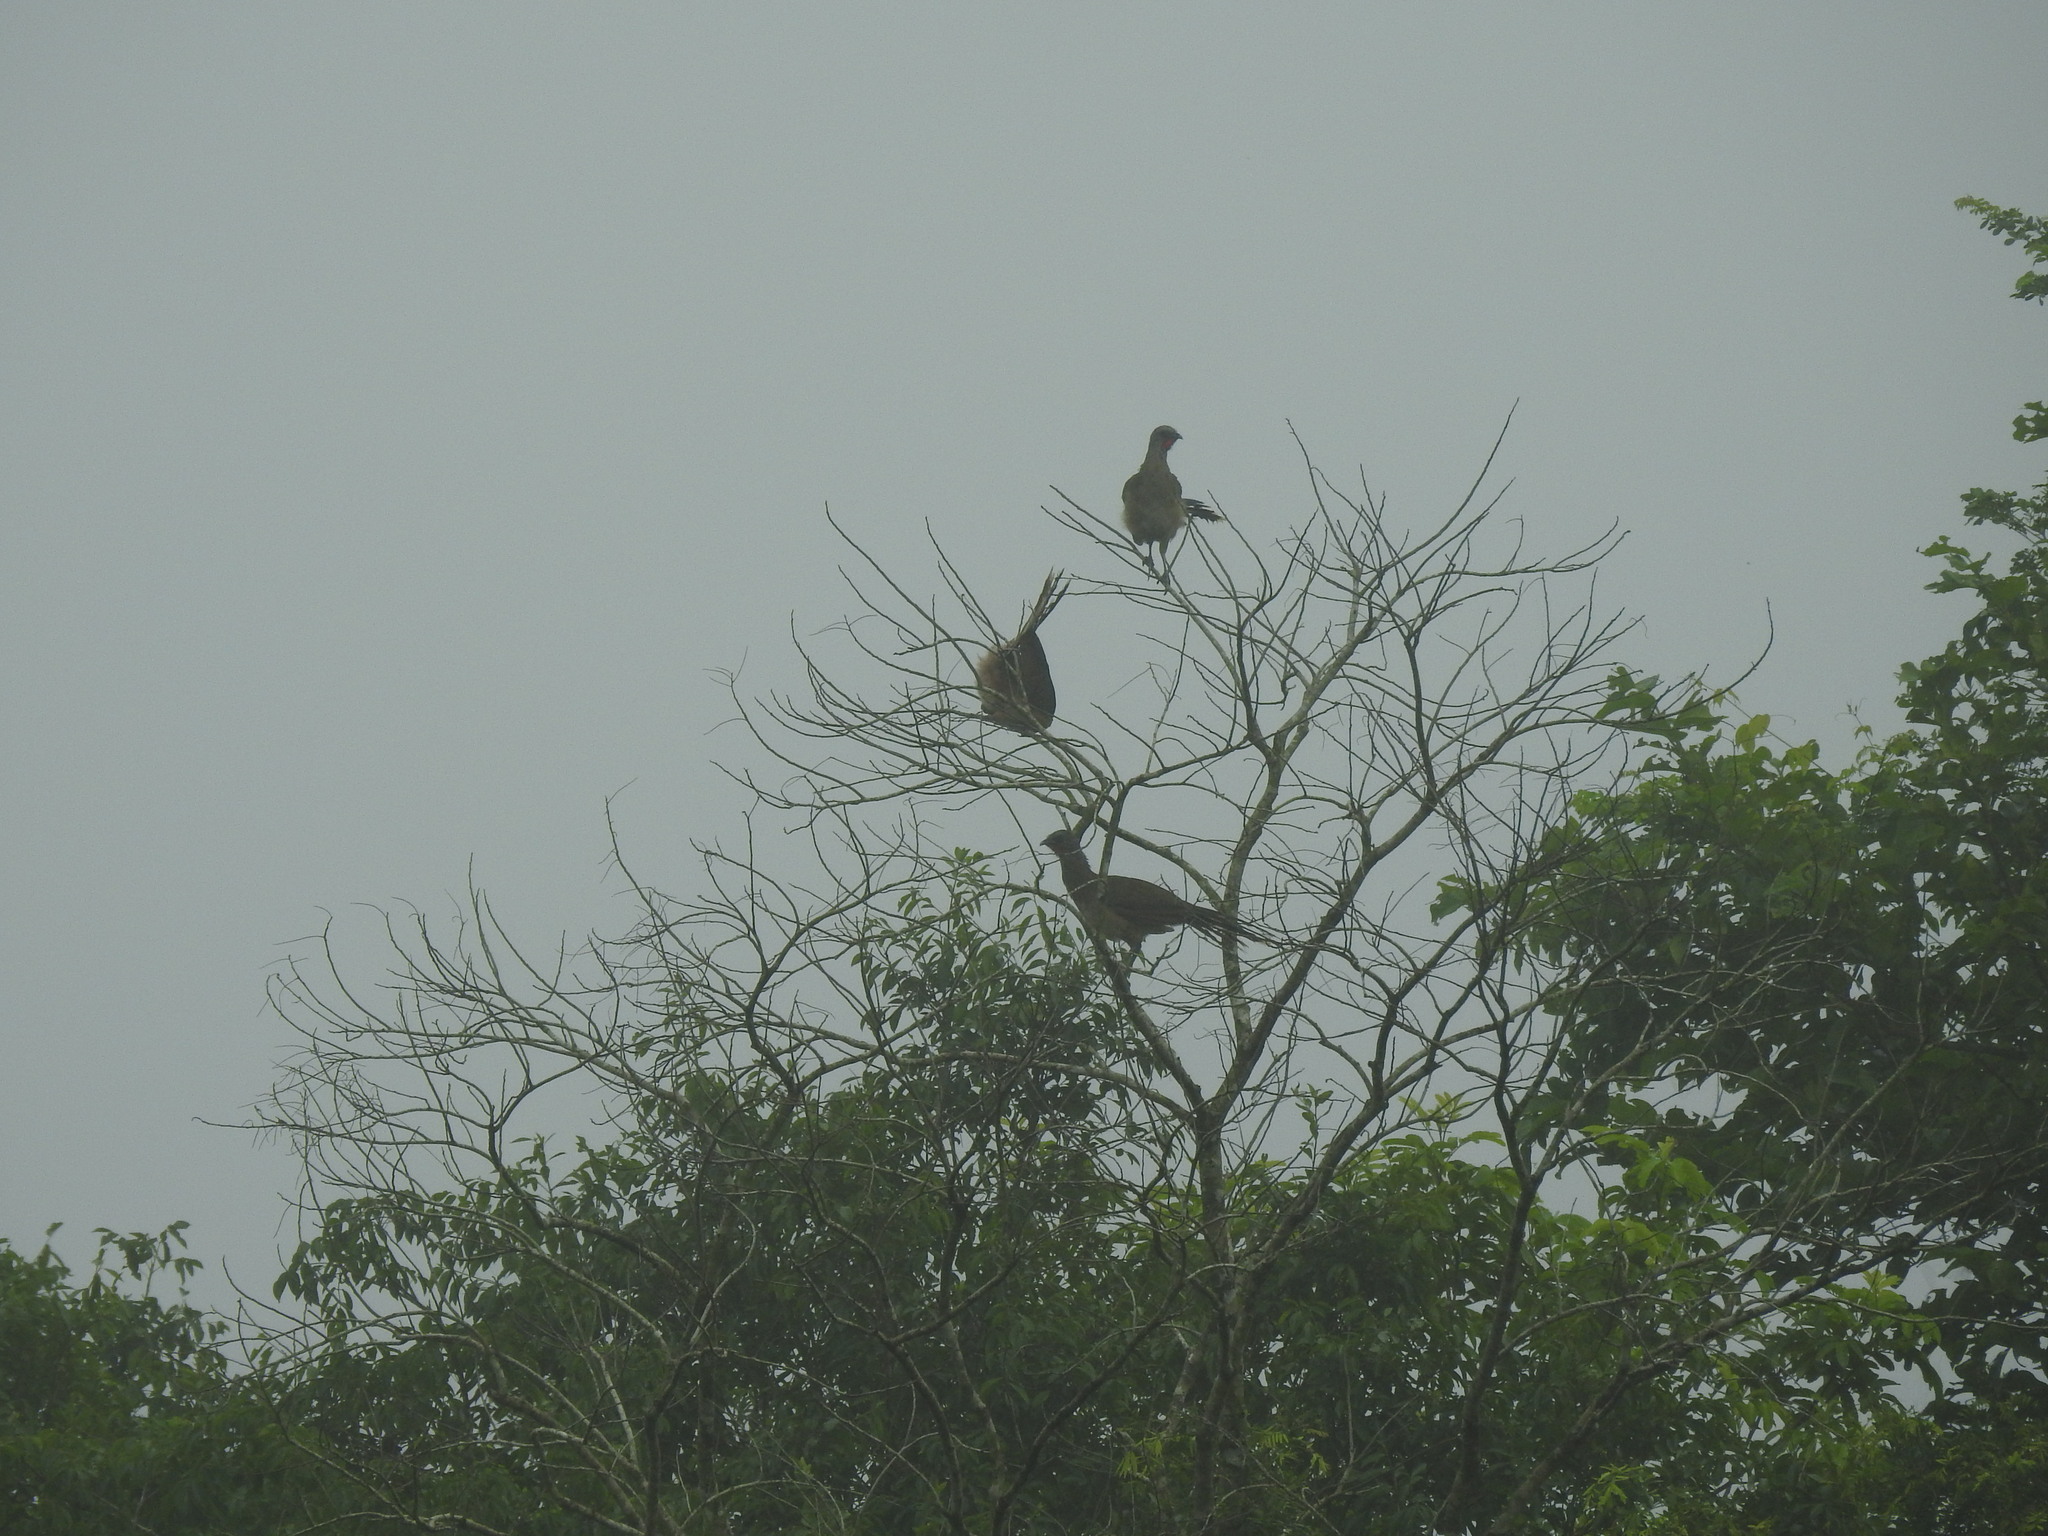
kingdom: Animalia
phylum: Chordata
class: Aves
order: Galliformes
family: Cracidae
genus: Ortalis
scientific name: Ortalis vetula
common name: Plain chachalaca
